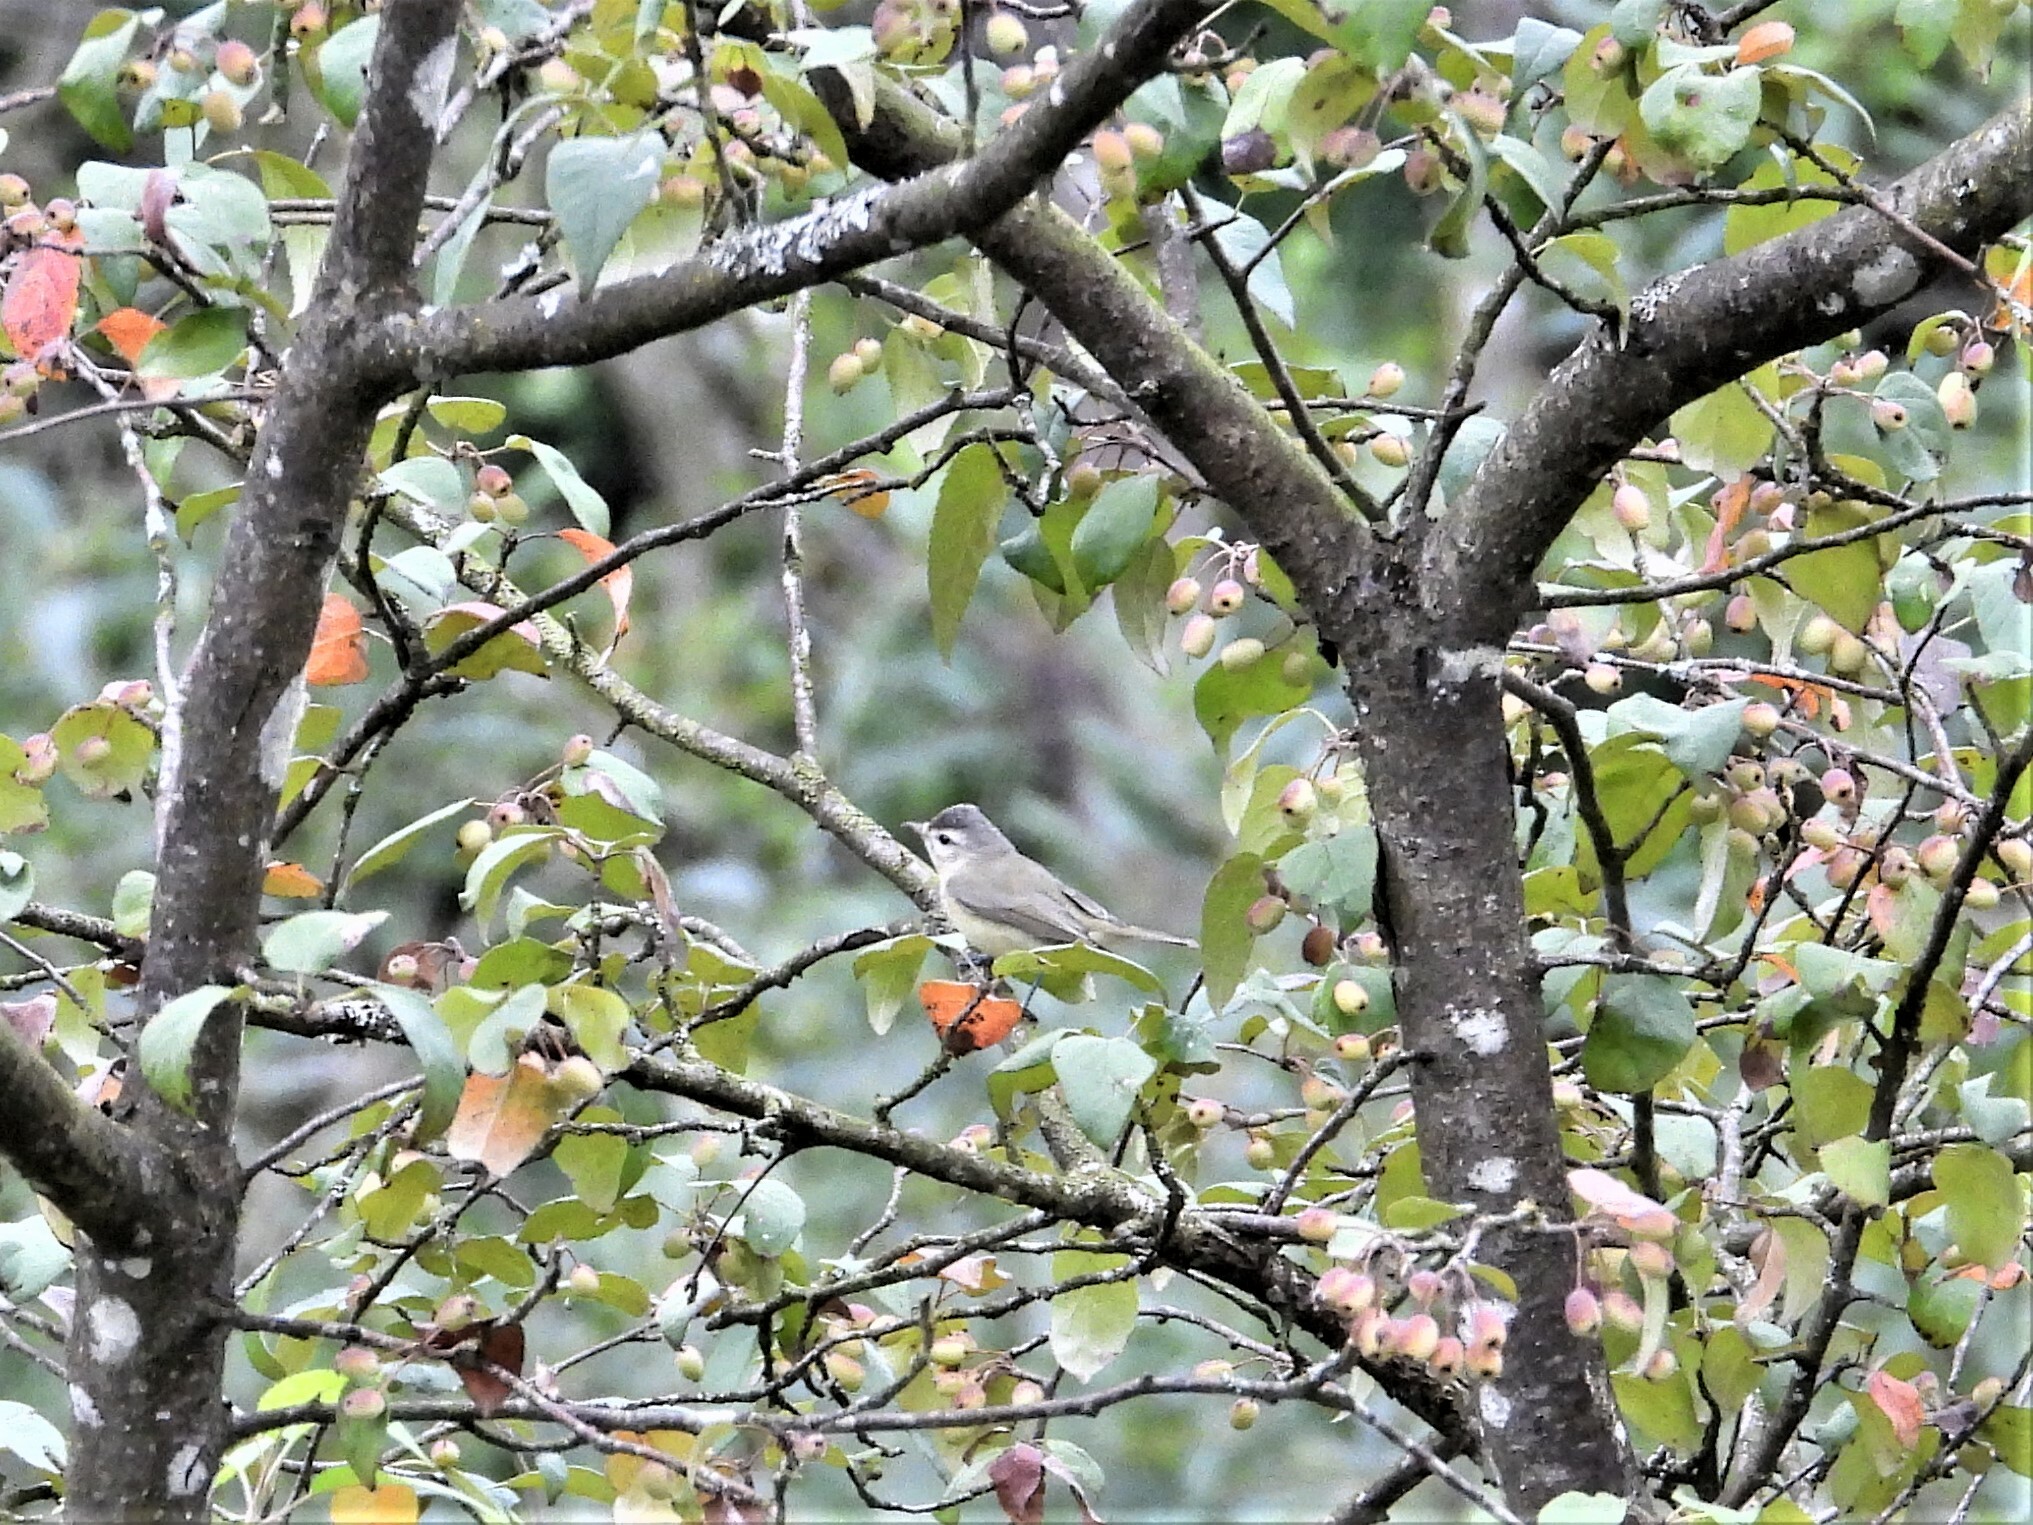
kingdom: Animalia
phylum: Chordata
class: Aves
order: Passeriformes
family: Vireonidae
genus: Vireo
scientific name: Vireo gilvus
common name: Warbling vireo
